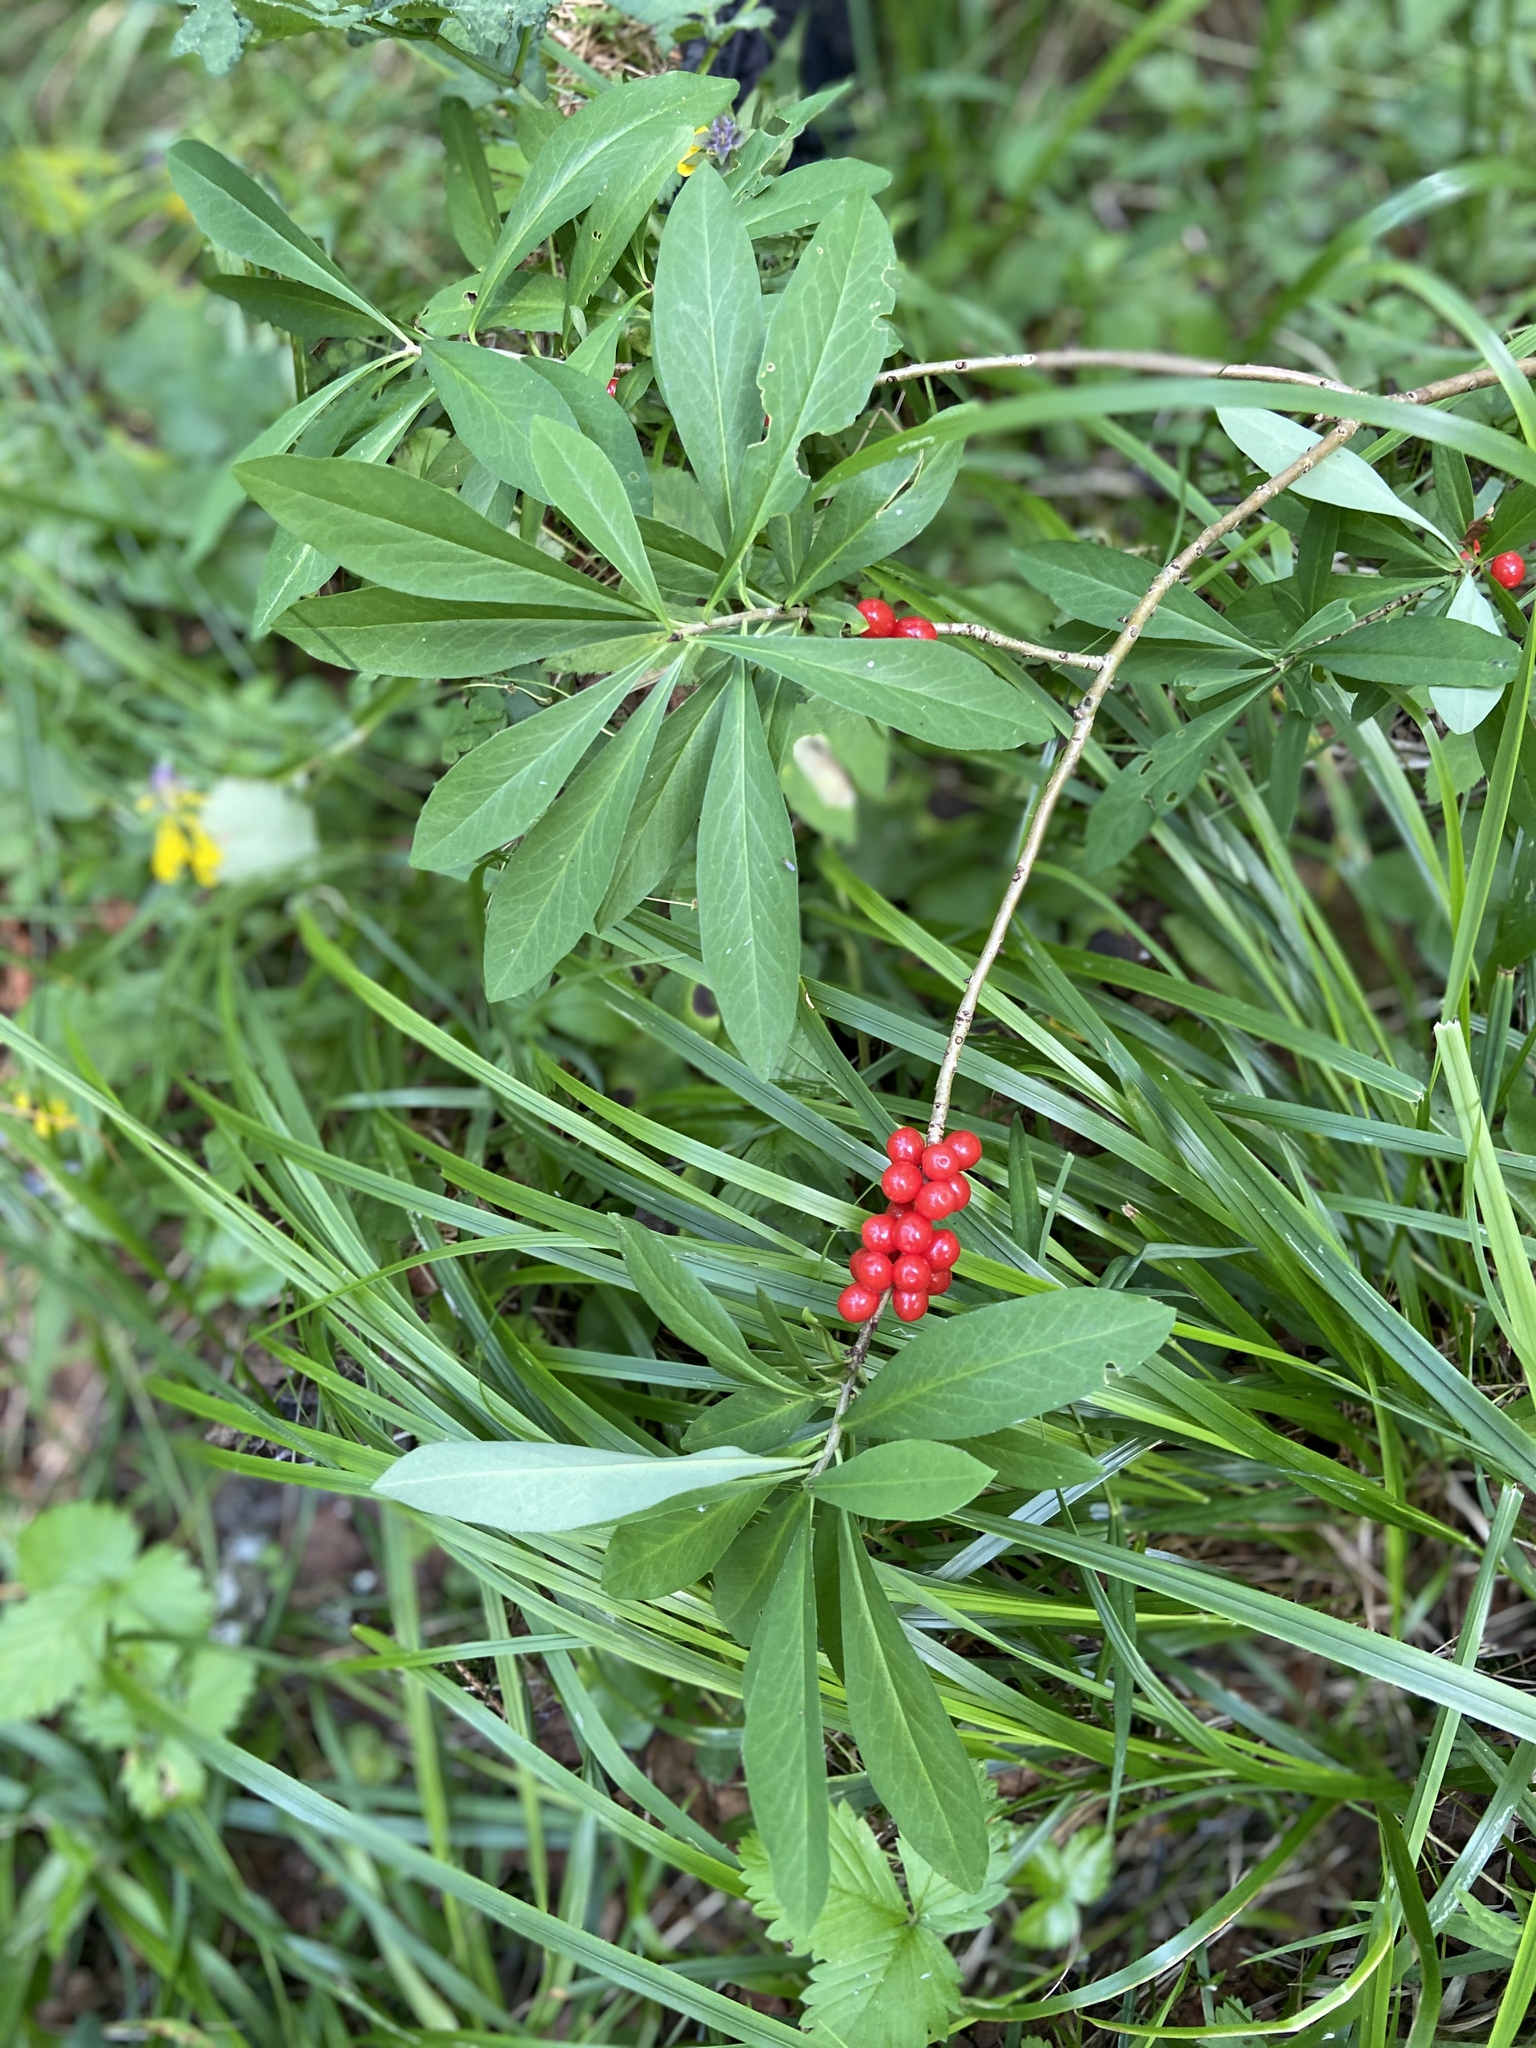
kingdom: Plantae
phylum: Tracheophyta
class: Magnoliopsida
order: Malvales
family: Thymelaeaceae
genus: Daphne
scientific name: Daphne mezereum
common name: Mezereon
